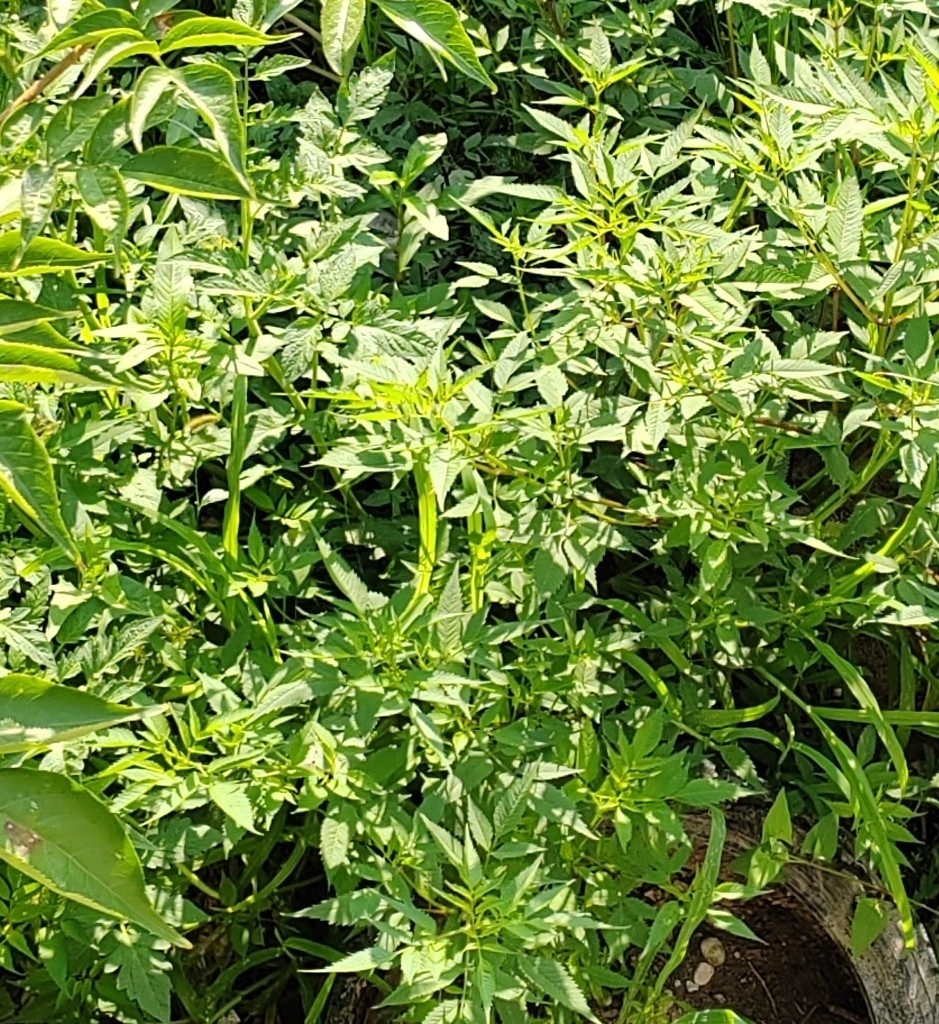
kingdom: Plantae
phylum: Tracheophyta
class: Magnoliopsida
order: Asterales
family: Asteraceae
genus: Bidens
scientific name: Bidens frondosa
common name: Beggarticks
